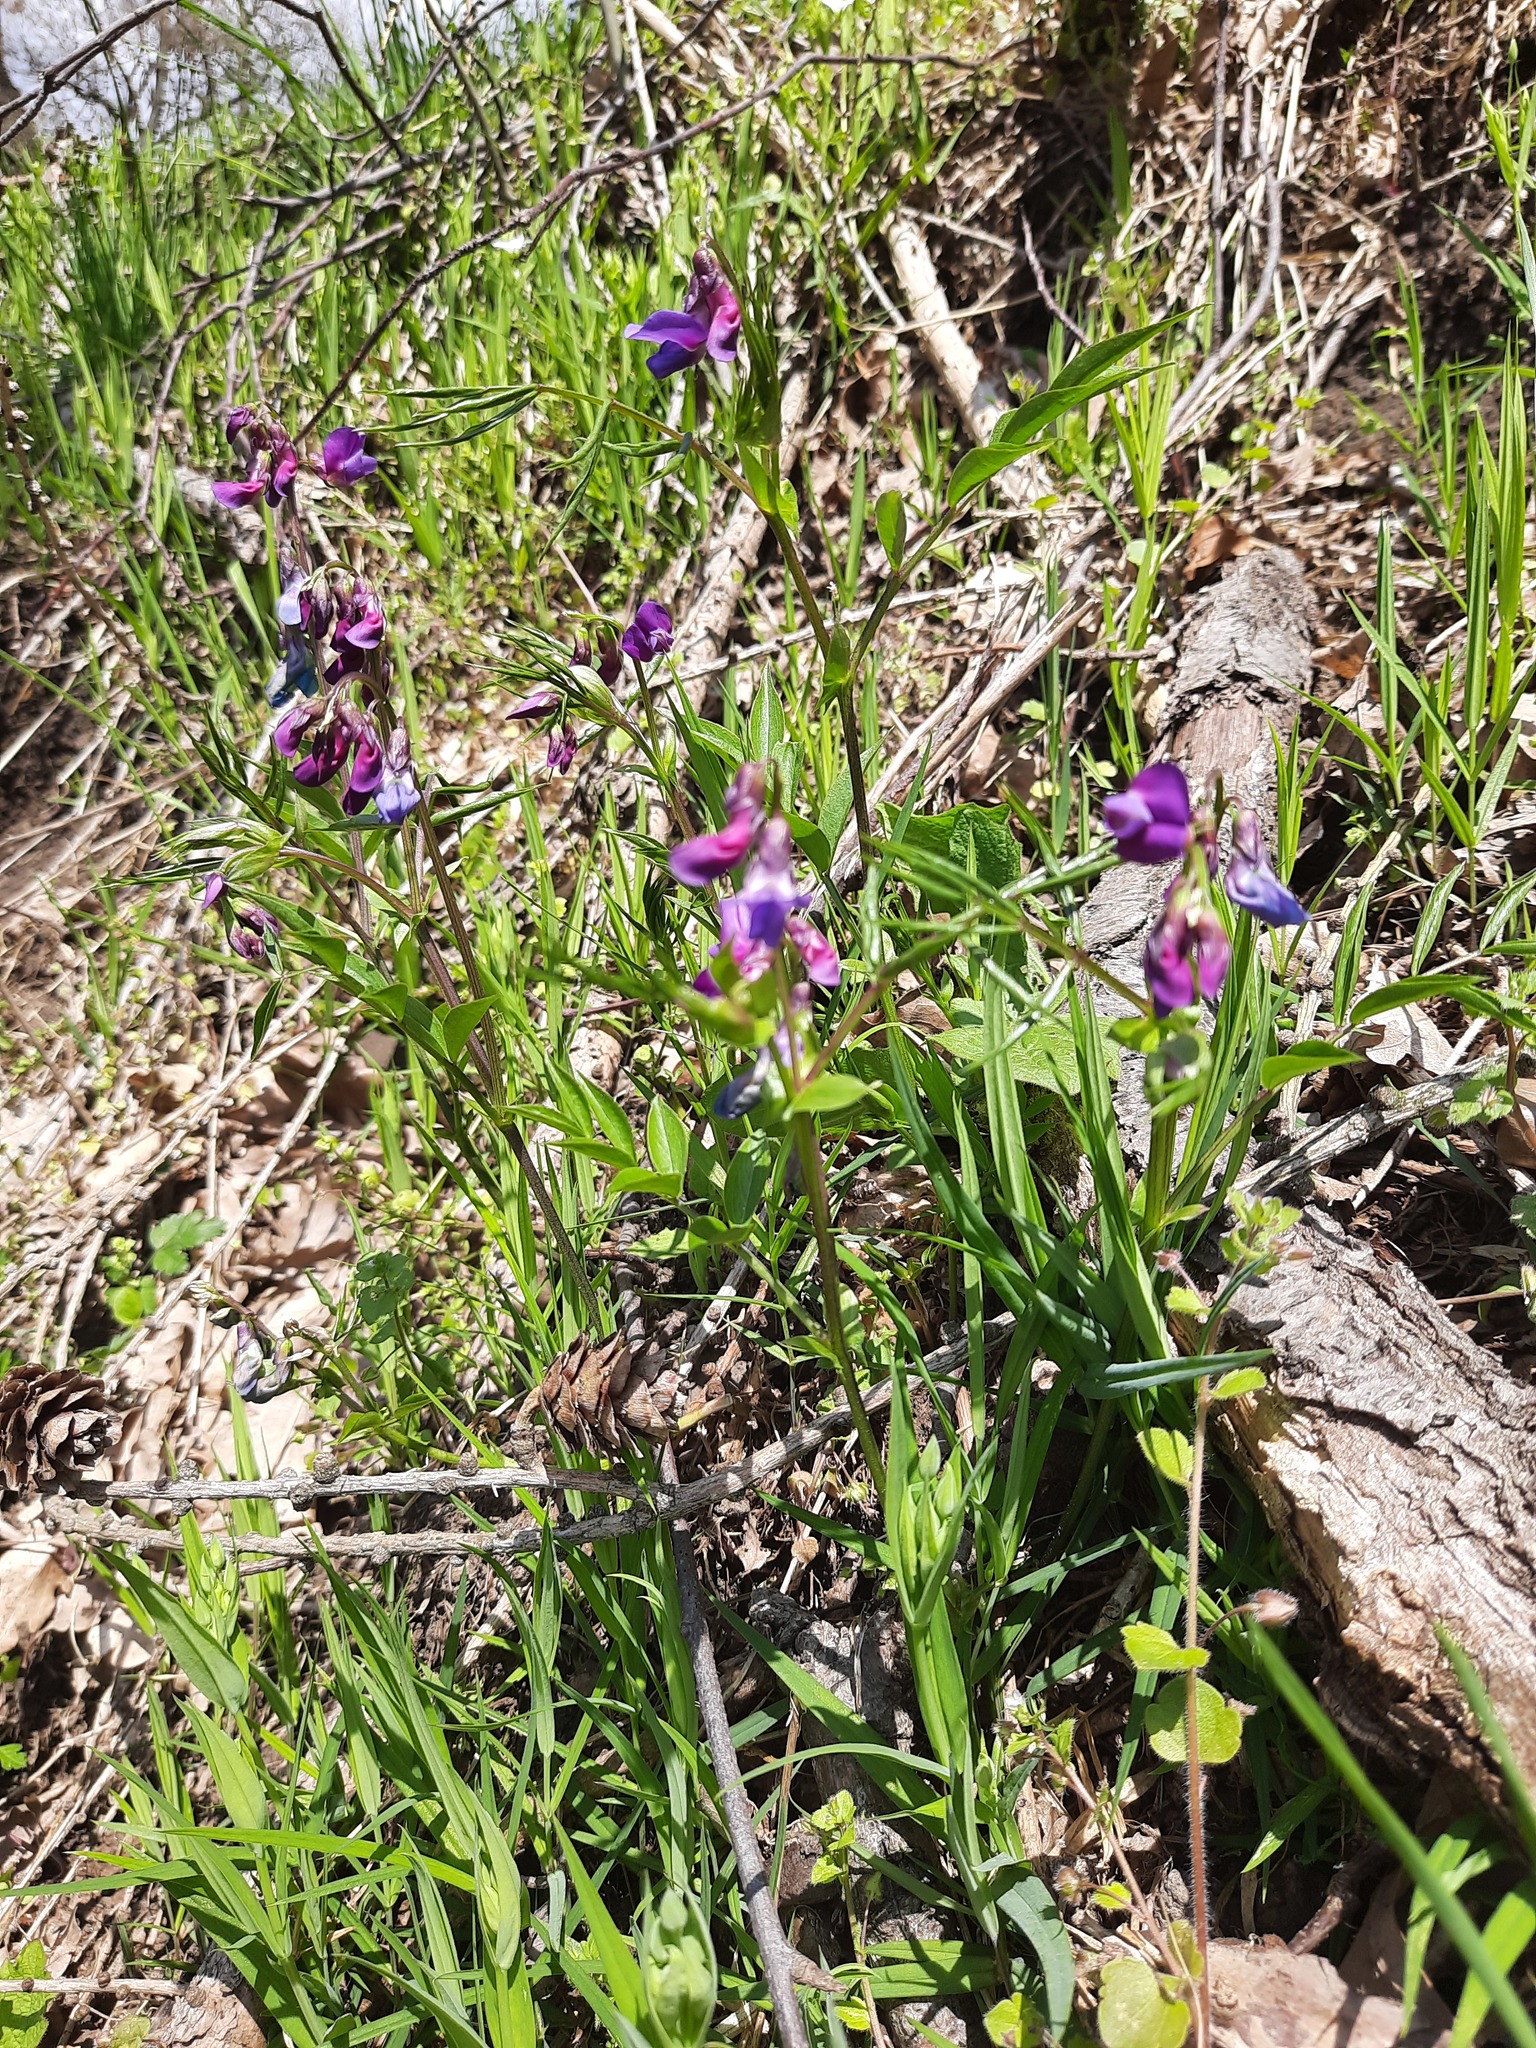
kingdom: Plantae
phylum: Tracheophyta
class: Magnoliopsida
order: Fabales
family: Fabaceae
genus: Lathyrus
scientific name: Lathyrus vernus
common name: Spring pea
